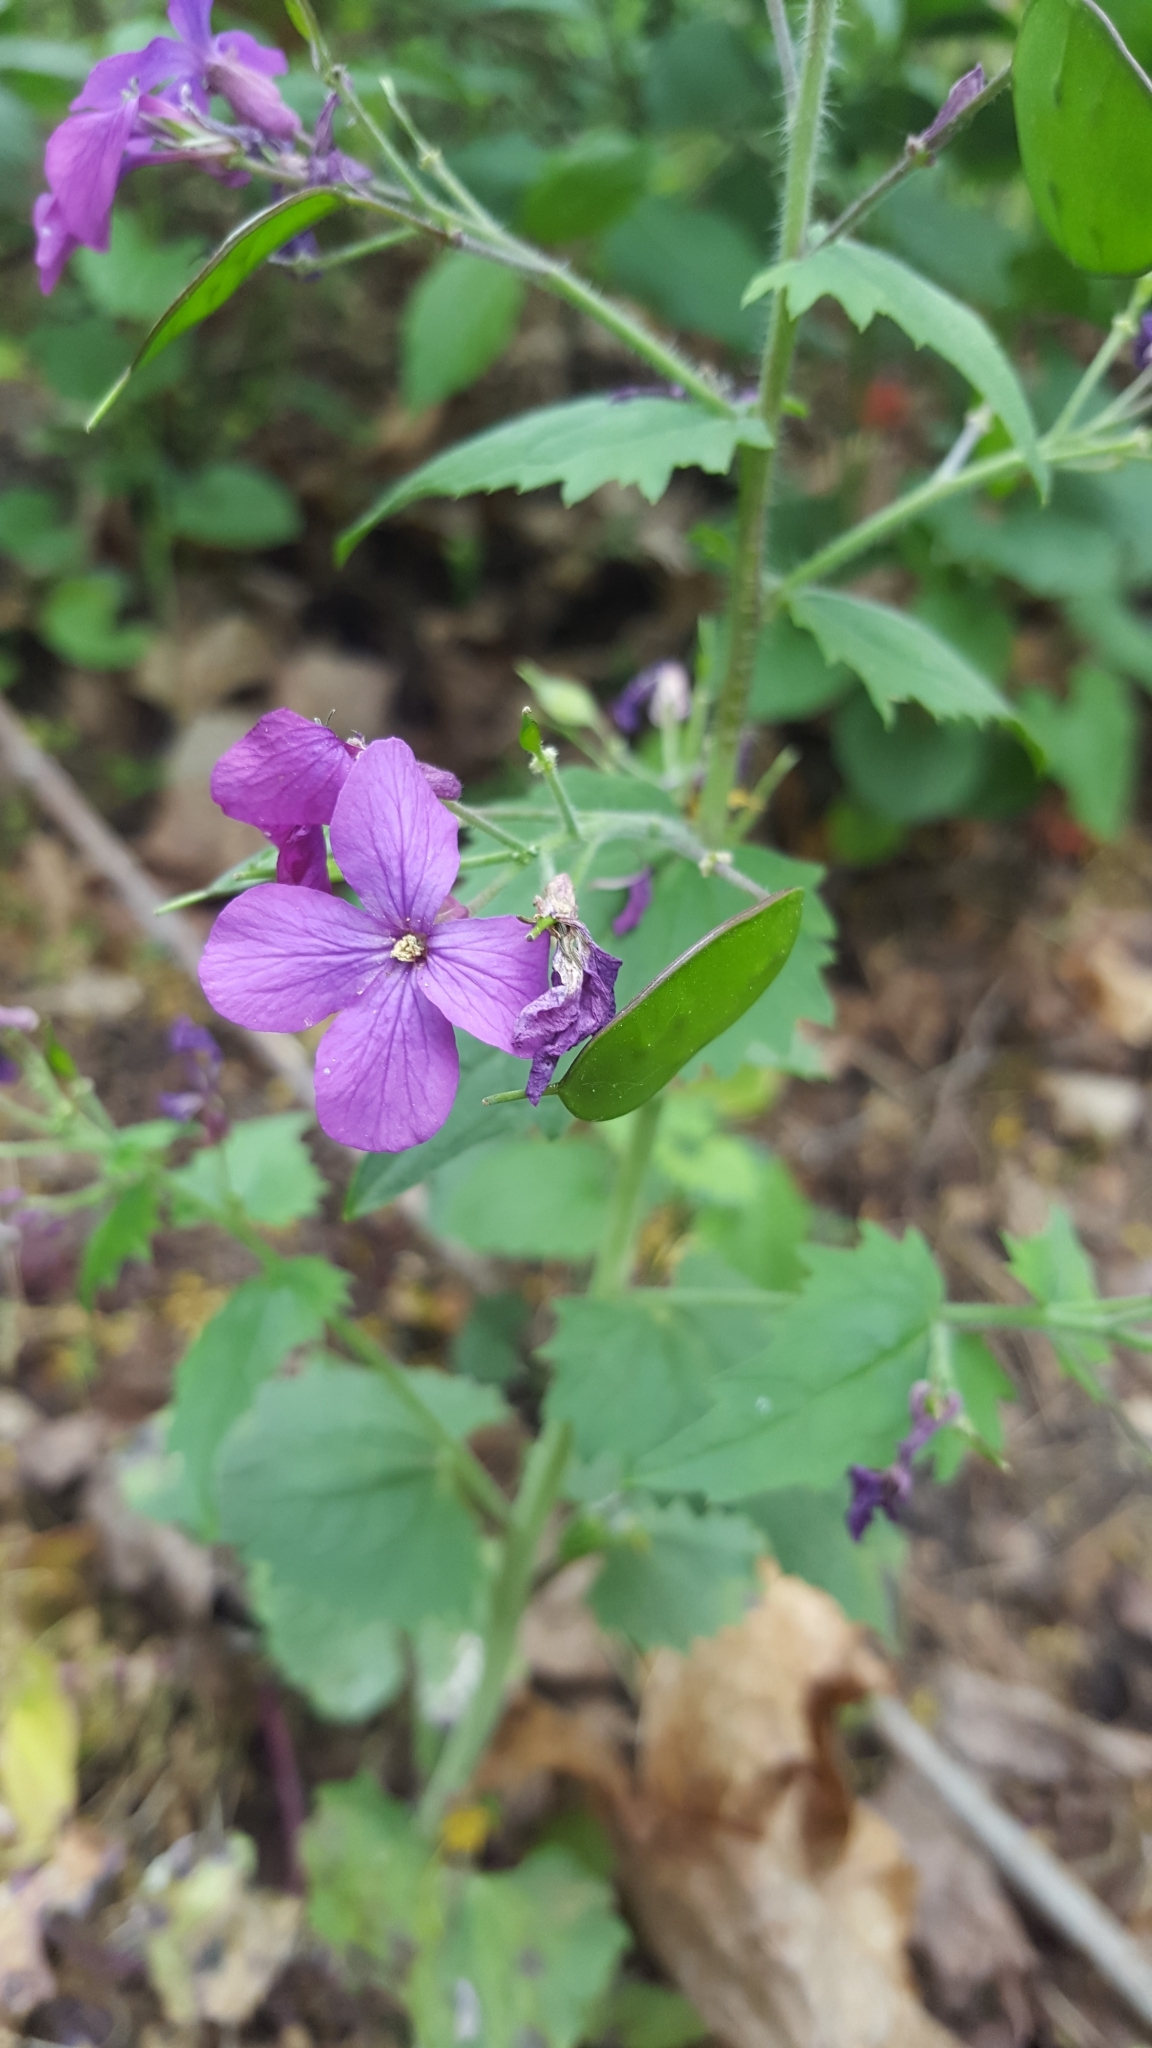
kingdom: Plantae
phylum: Tracheophyta
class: Magnoliopsida
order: Brassicales
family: Brassicaceae
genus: Lunaria
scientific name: Lunaria annua
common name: Honesty
